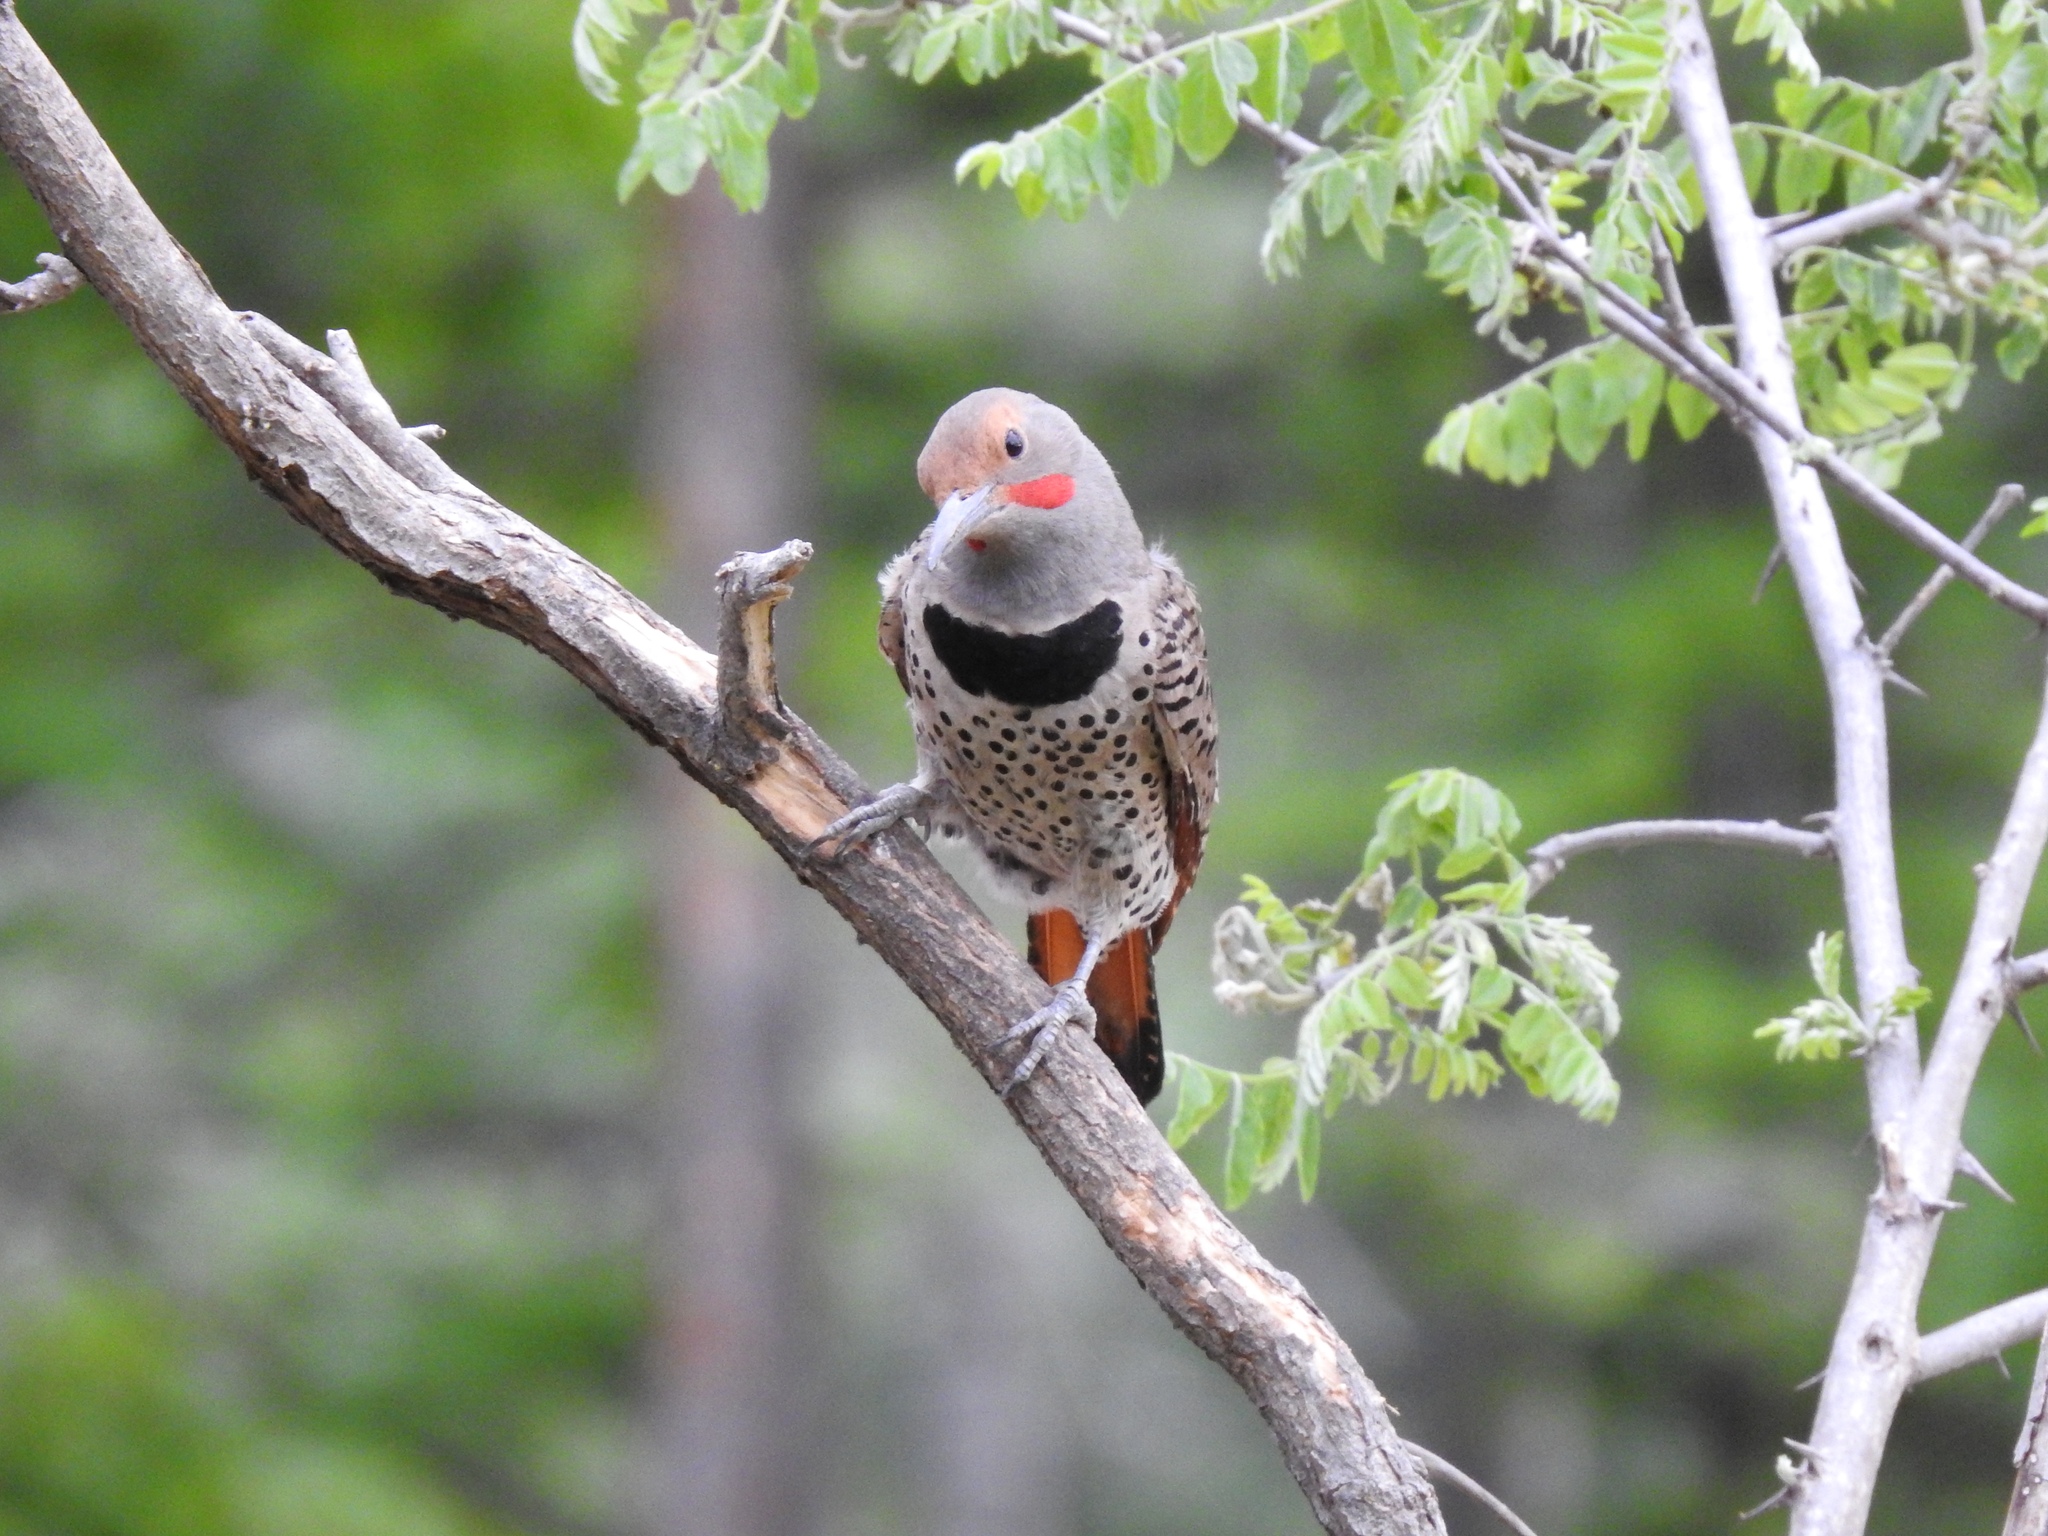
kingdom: Animalia
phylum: Chordata
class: Aves
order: Piciformes
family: Picidae
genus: Colaptes
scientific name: Colaptes auratus
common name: Northern flicker
